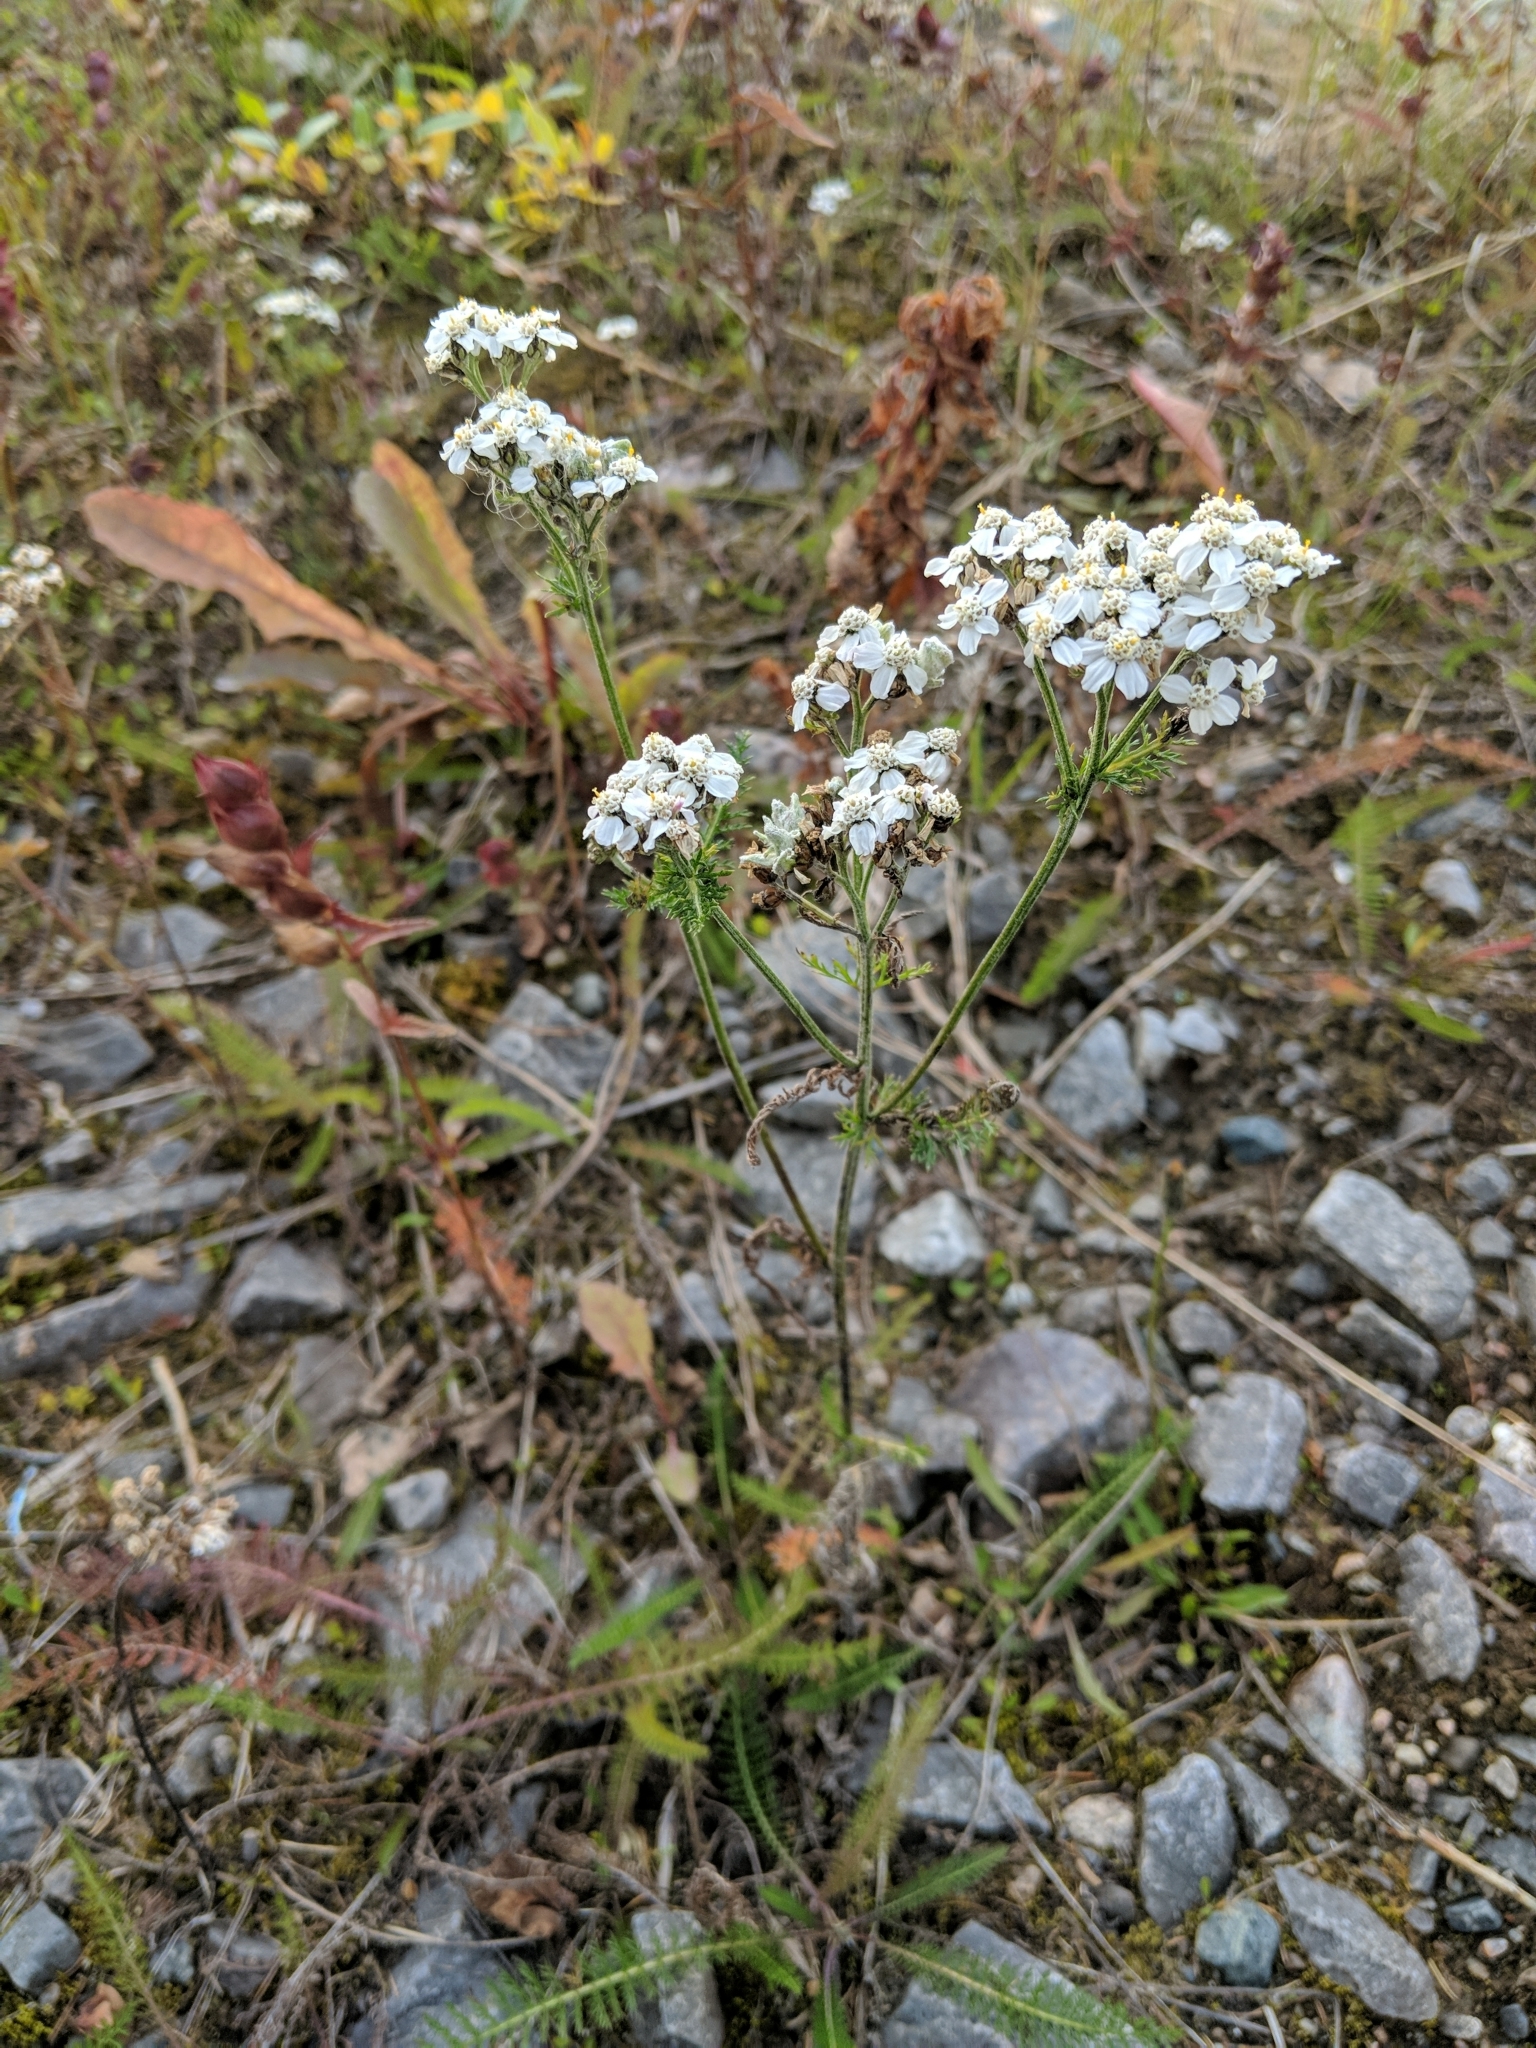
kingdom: Plantae
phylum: Tracheophyta
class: Magnoliopsida
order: Asterales
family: Asteraceae
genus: Achillea
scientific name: Achillea millefolium
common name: Yarrow
